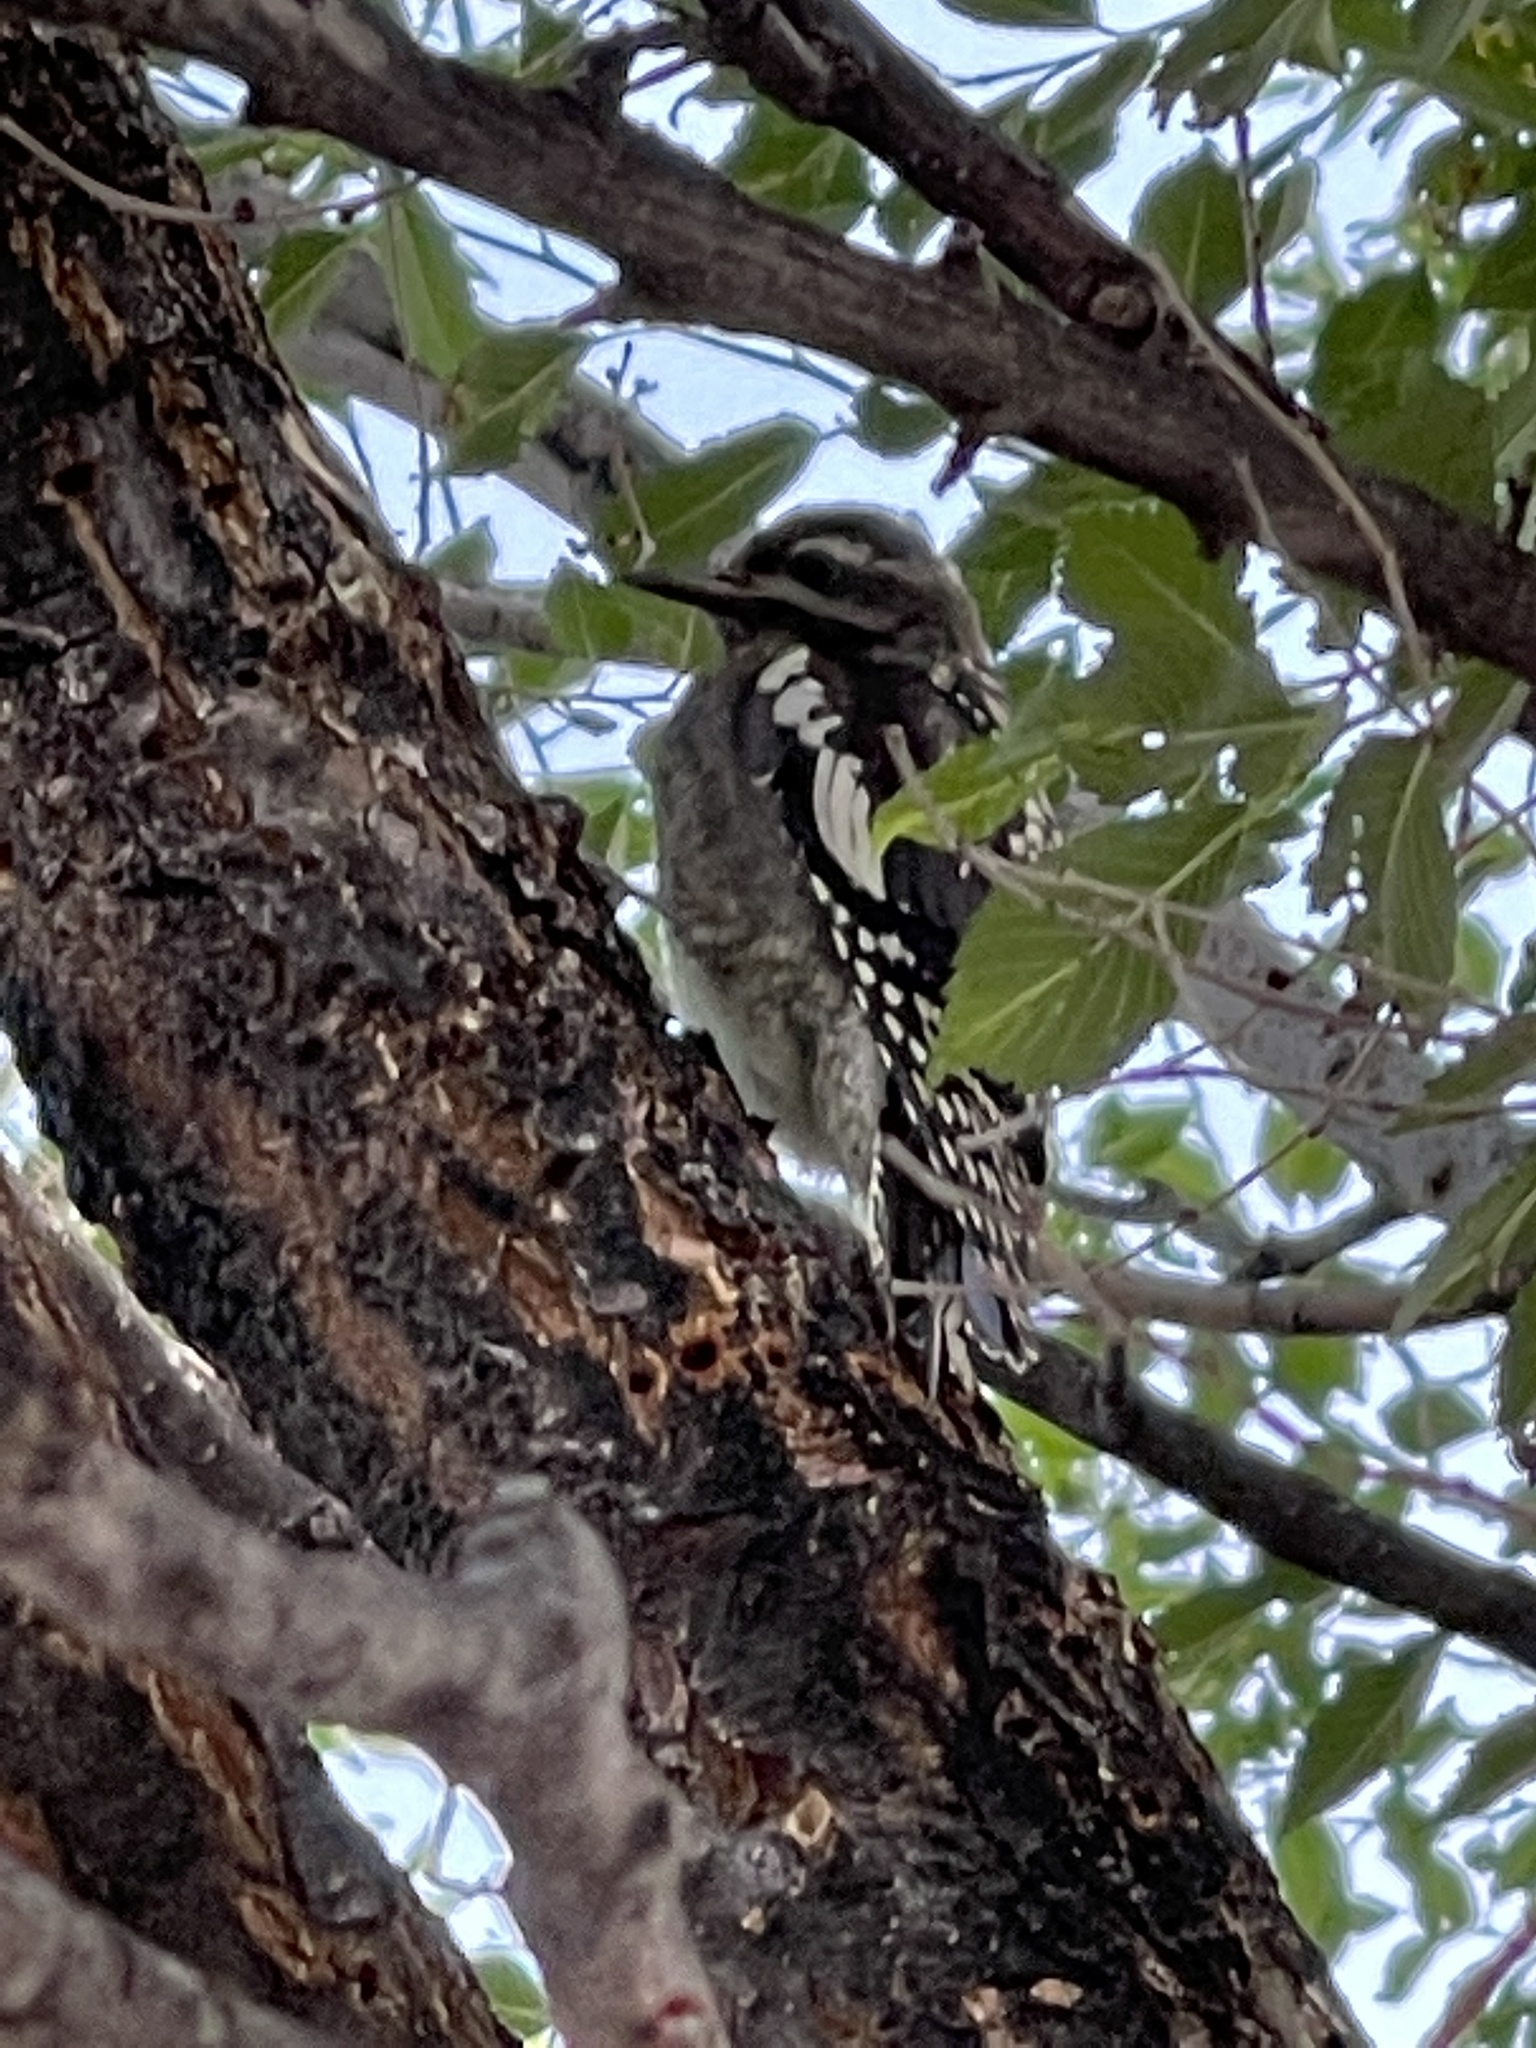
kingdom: Animalia
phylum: Chordata
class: Aves
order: Piciformes
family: Picidae
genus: Sphyrapicus
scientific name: Sphyrapicus nuchalis
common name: Red-naped sapsucker
